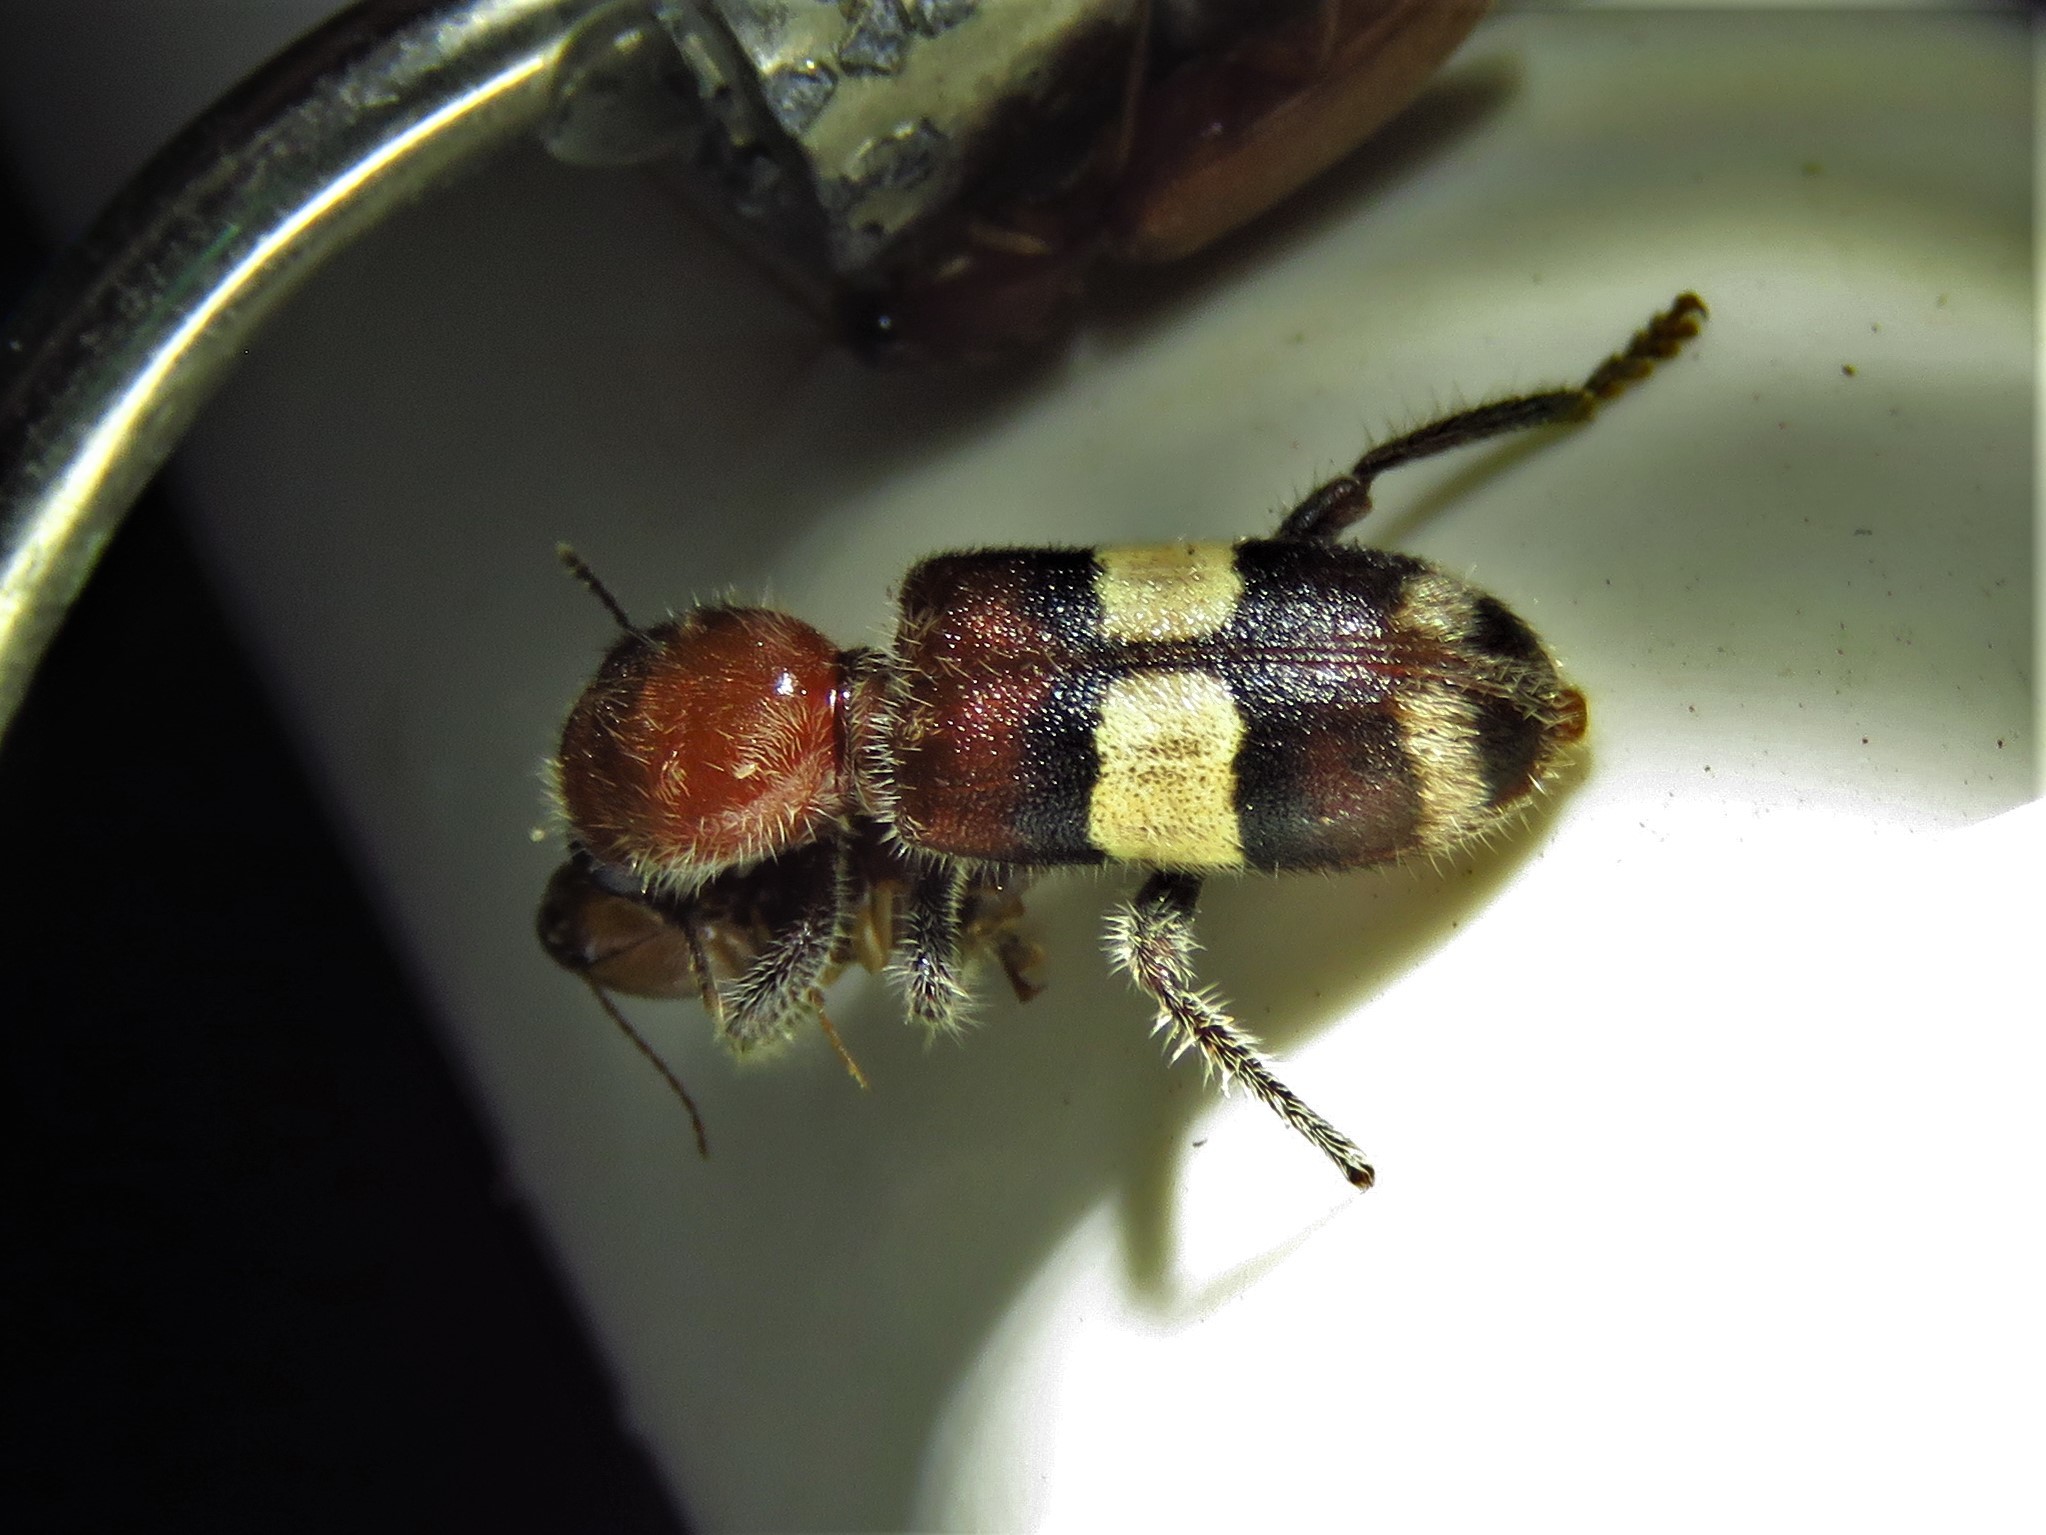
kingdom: Animalia
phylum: Arthropoda
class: Insecta
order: Coleoptera
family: Cleridae
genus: Enoclerus
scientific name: Enoclerus quadrisignatus
